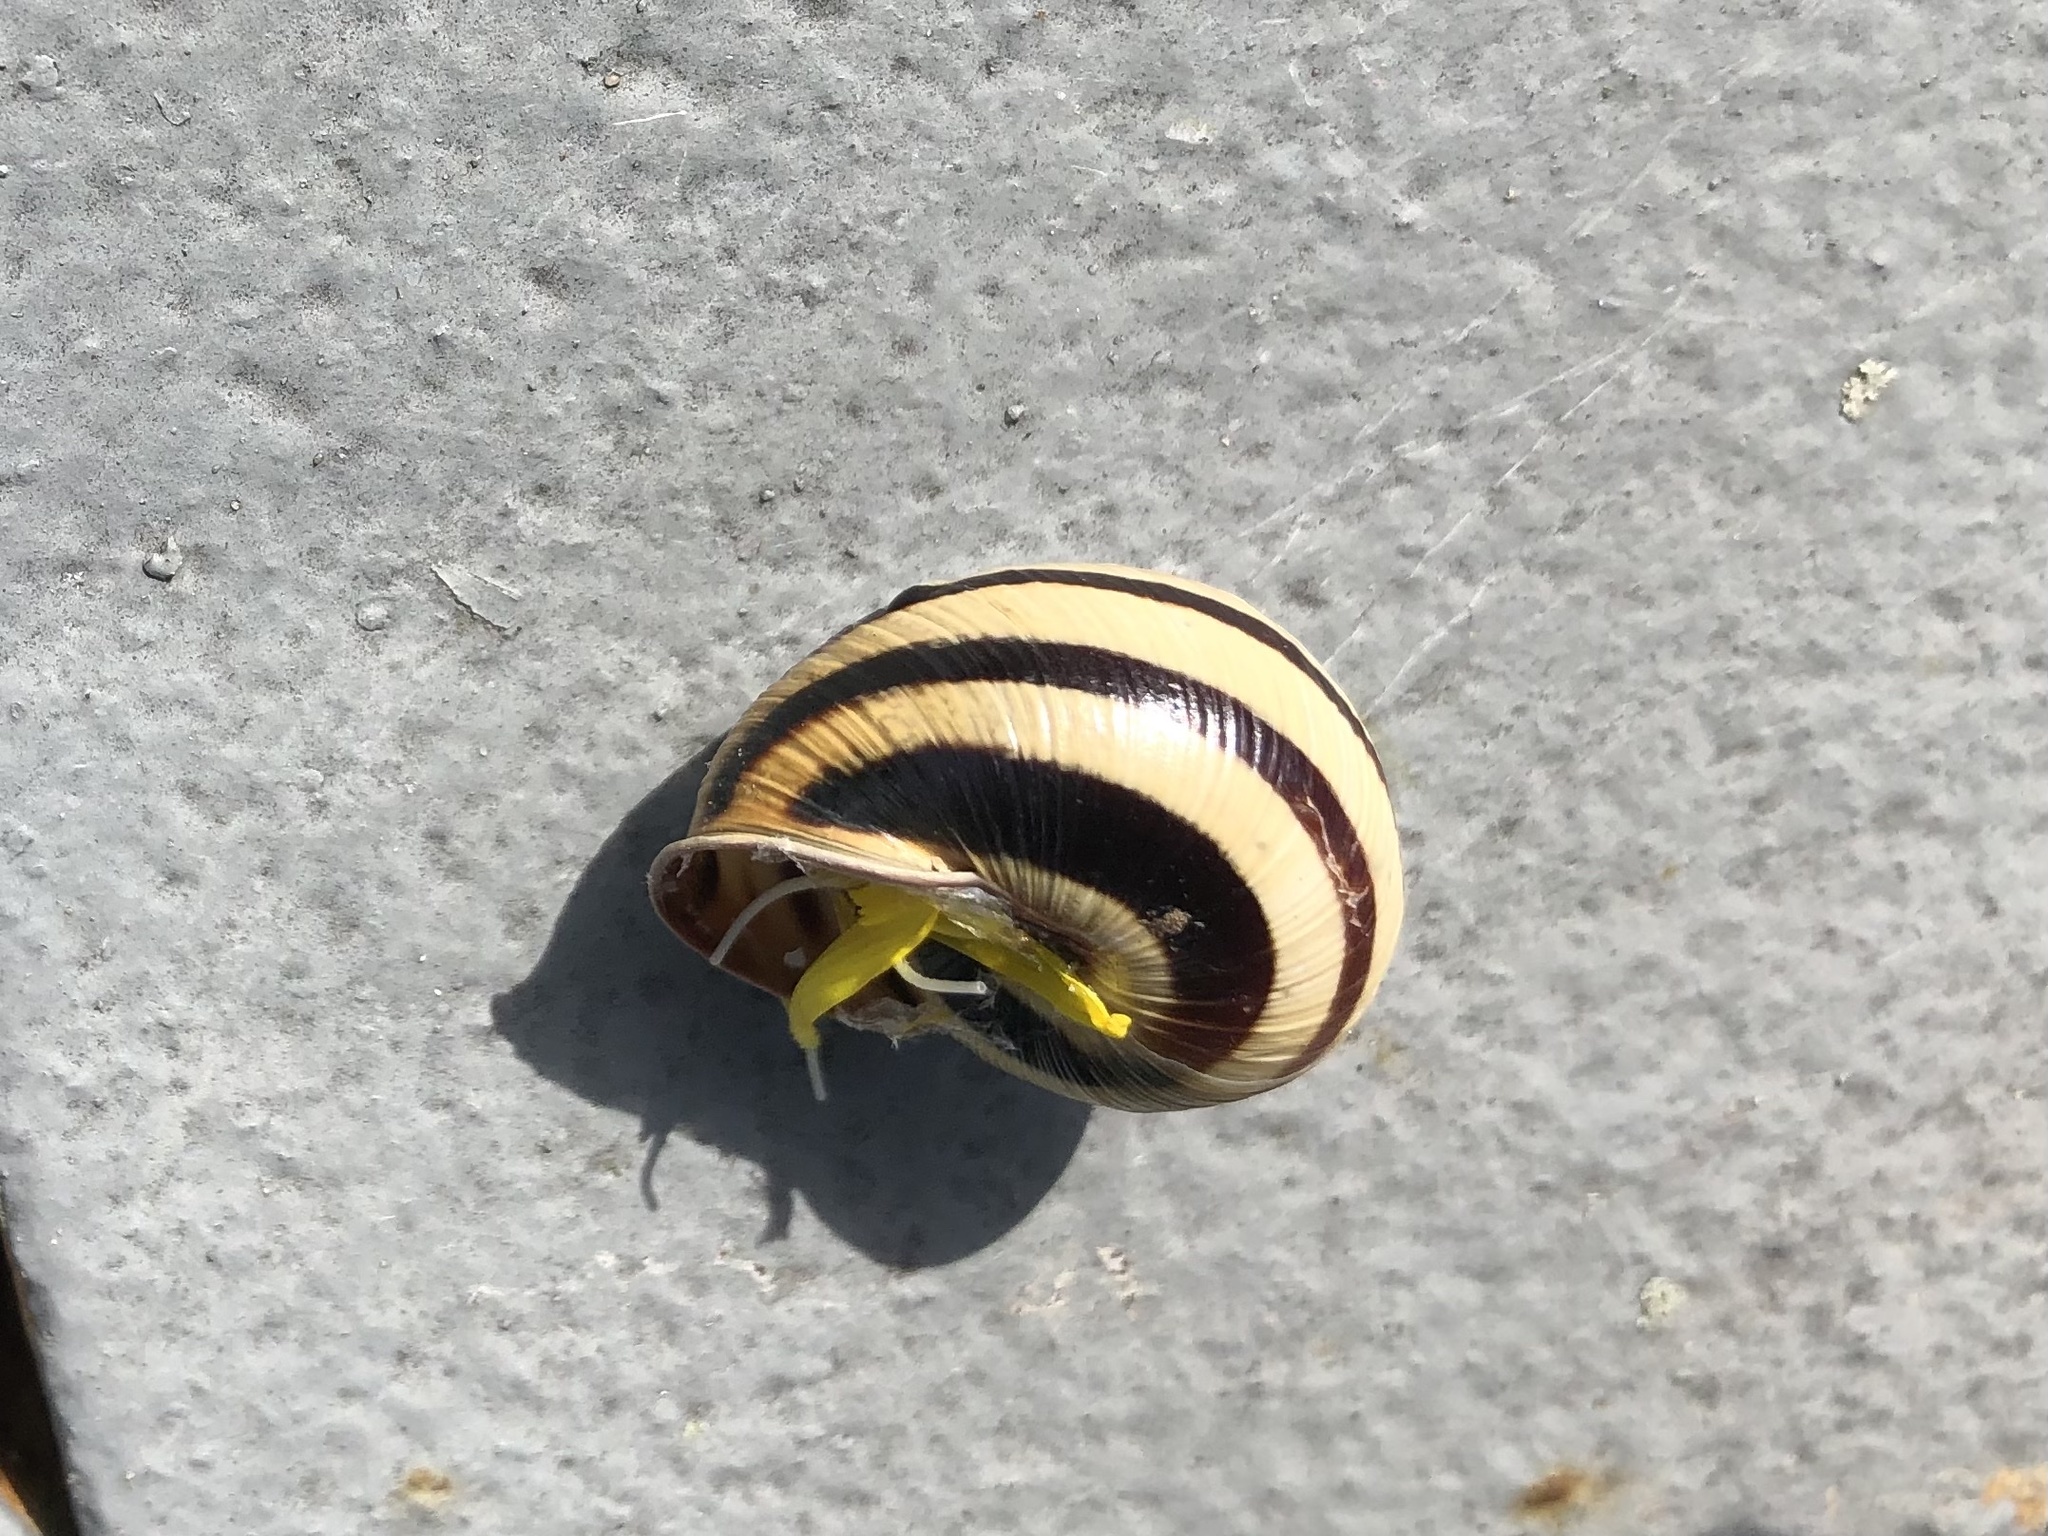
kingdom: Animalia
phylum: Mollusca
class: Gastropoda
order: Stylommatophora
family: Helicidae
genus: Caucasotachea
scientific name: Caucasotachea vindobonensis
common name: European helicid land snail
